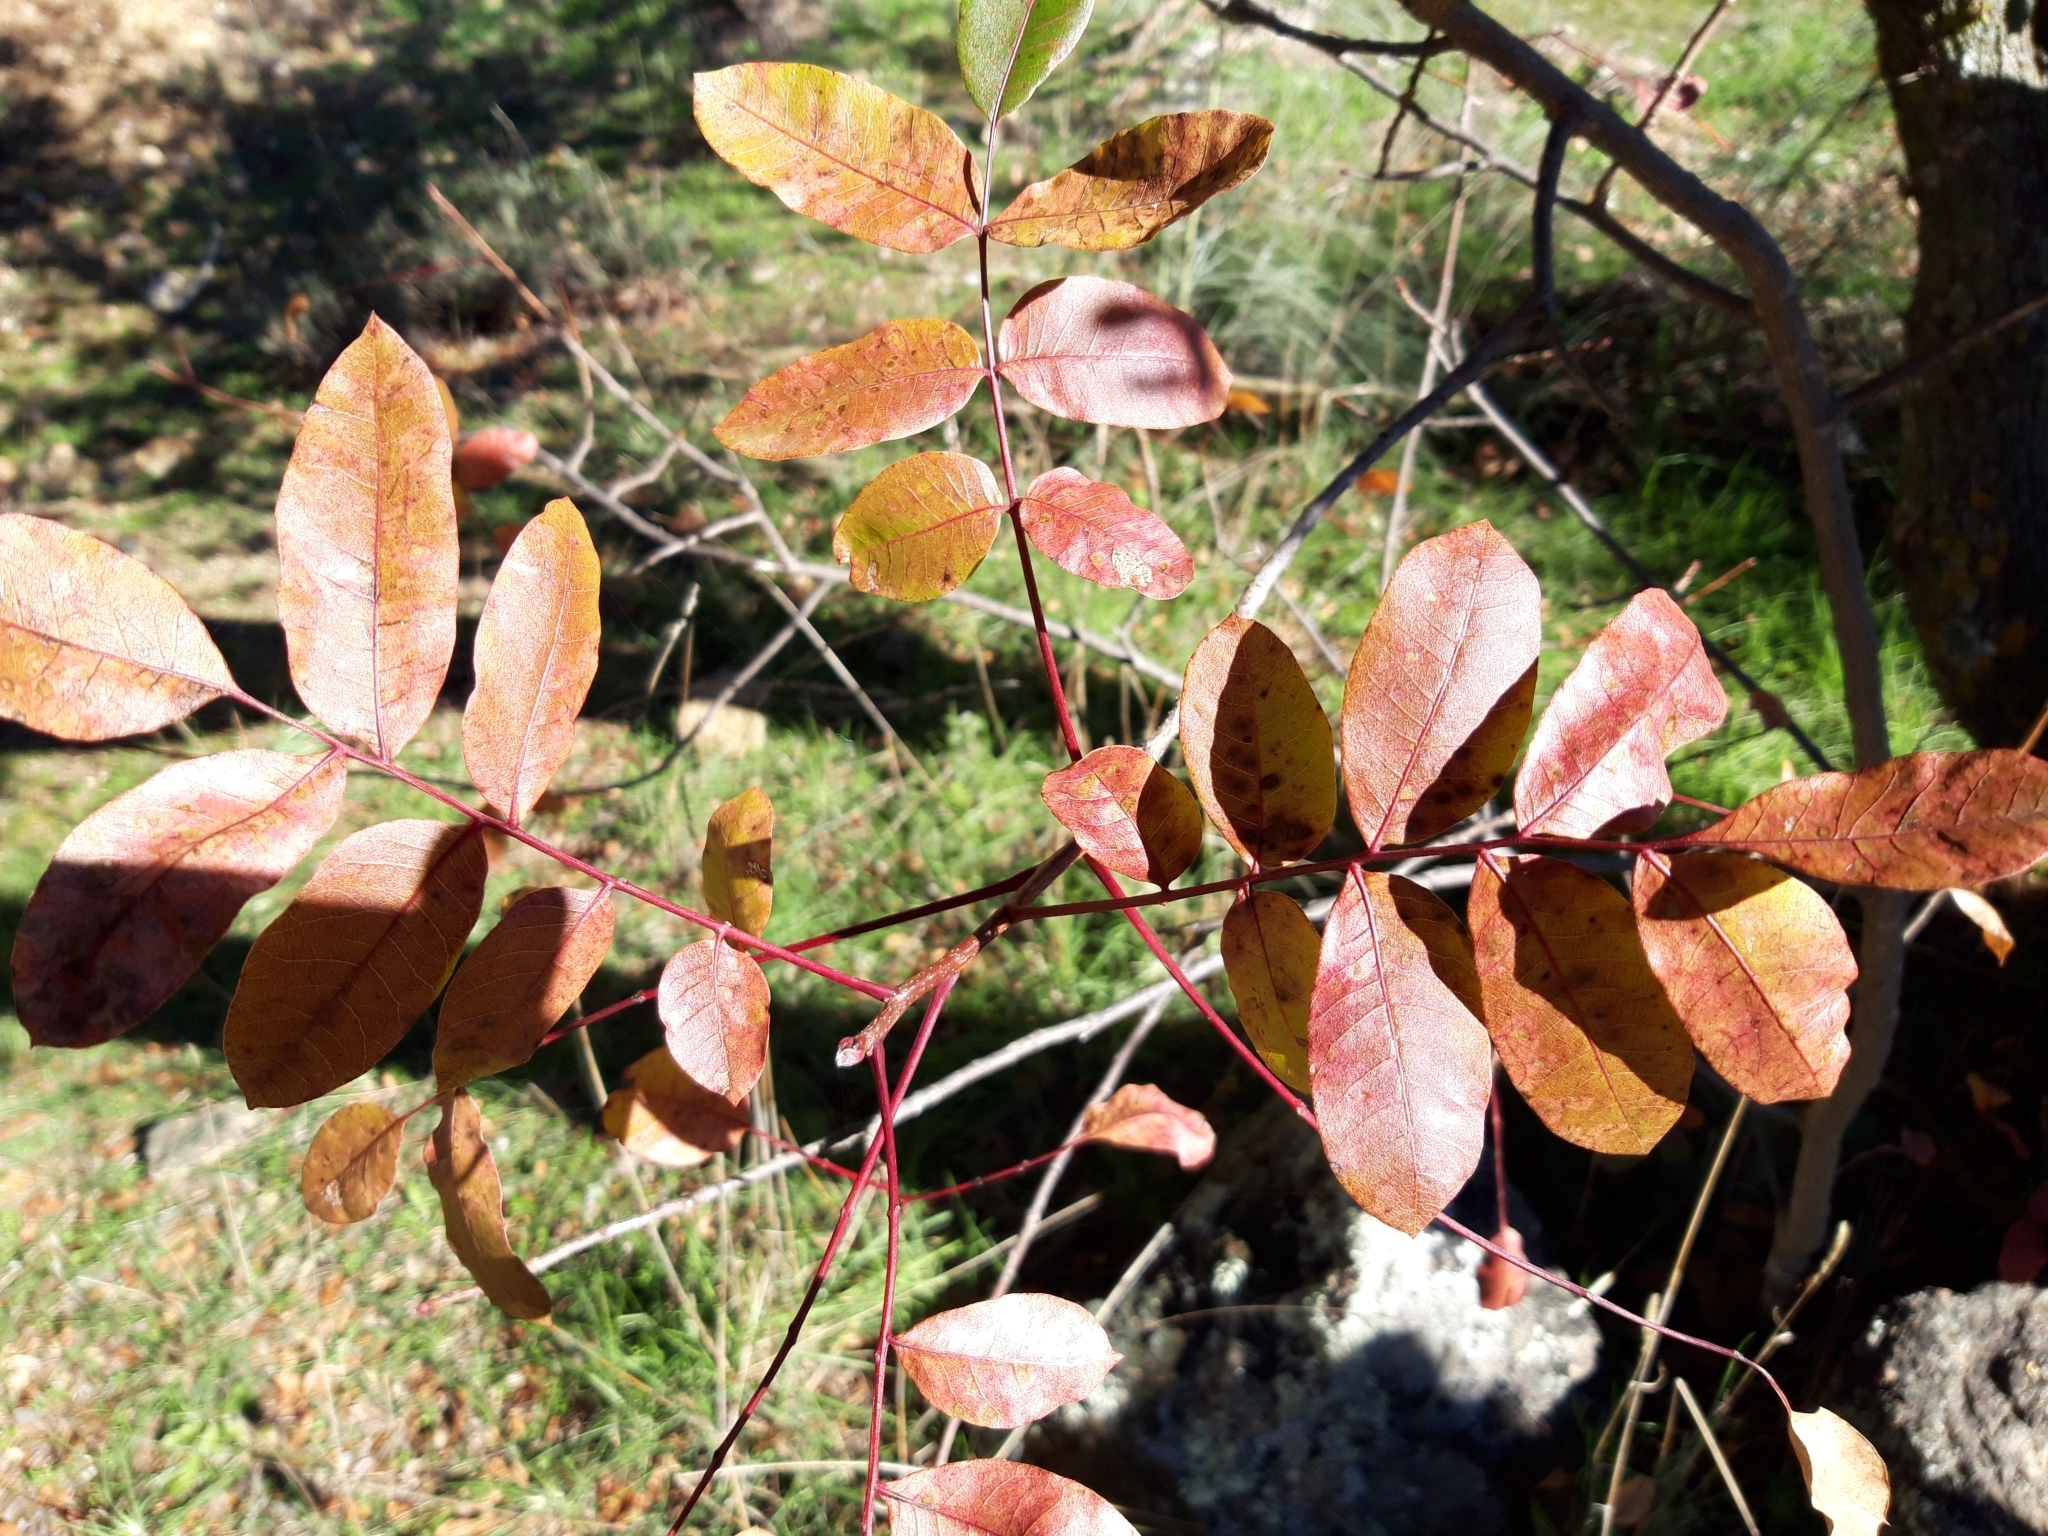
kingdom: Plantae
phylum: Tracheophyta
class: Magnoliopsida
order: Sapindales
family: Anacardiaceae
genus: Pistacia
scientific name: Pistacia terebinthus
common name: Terebinth
